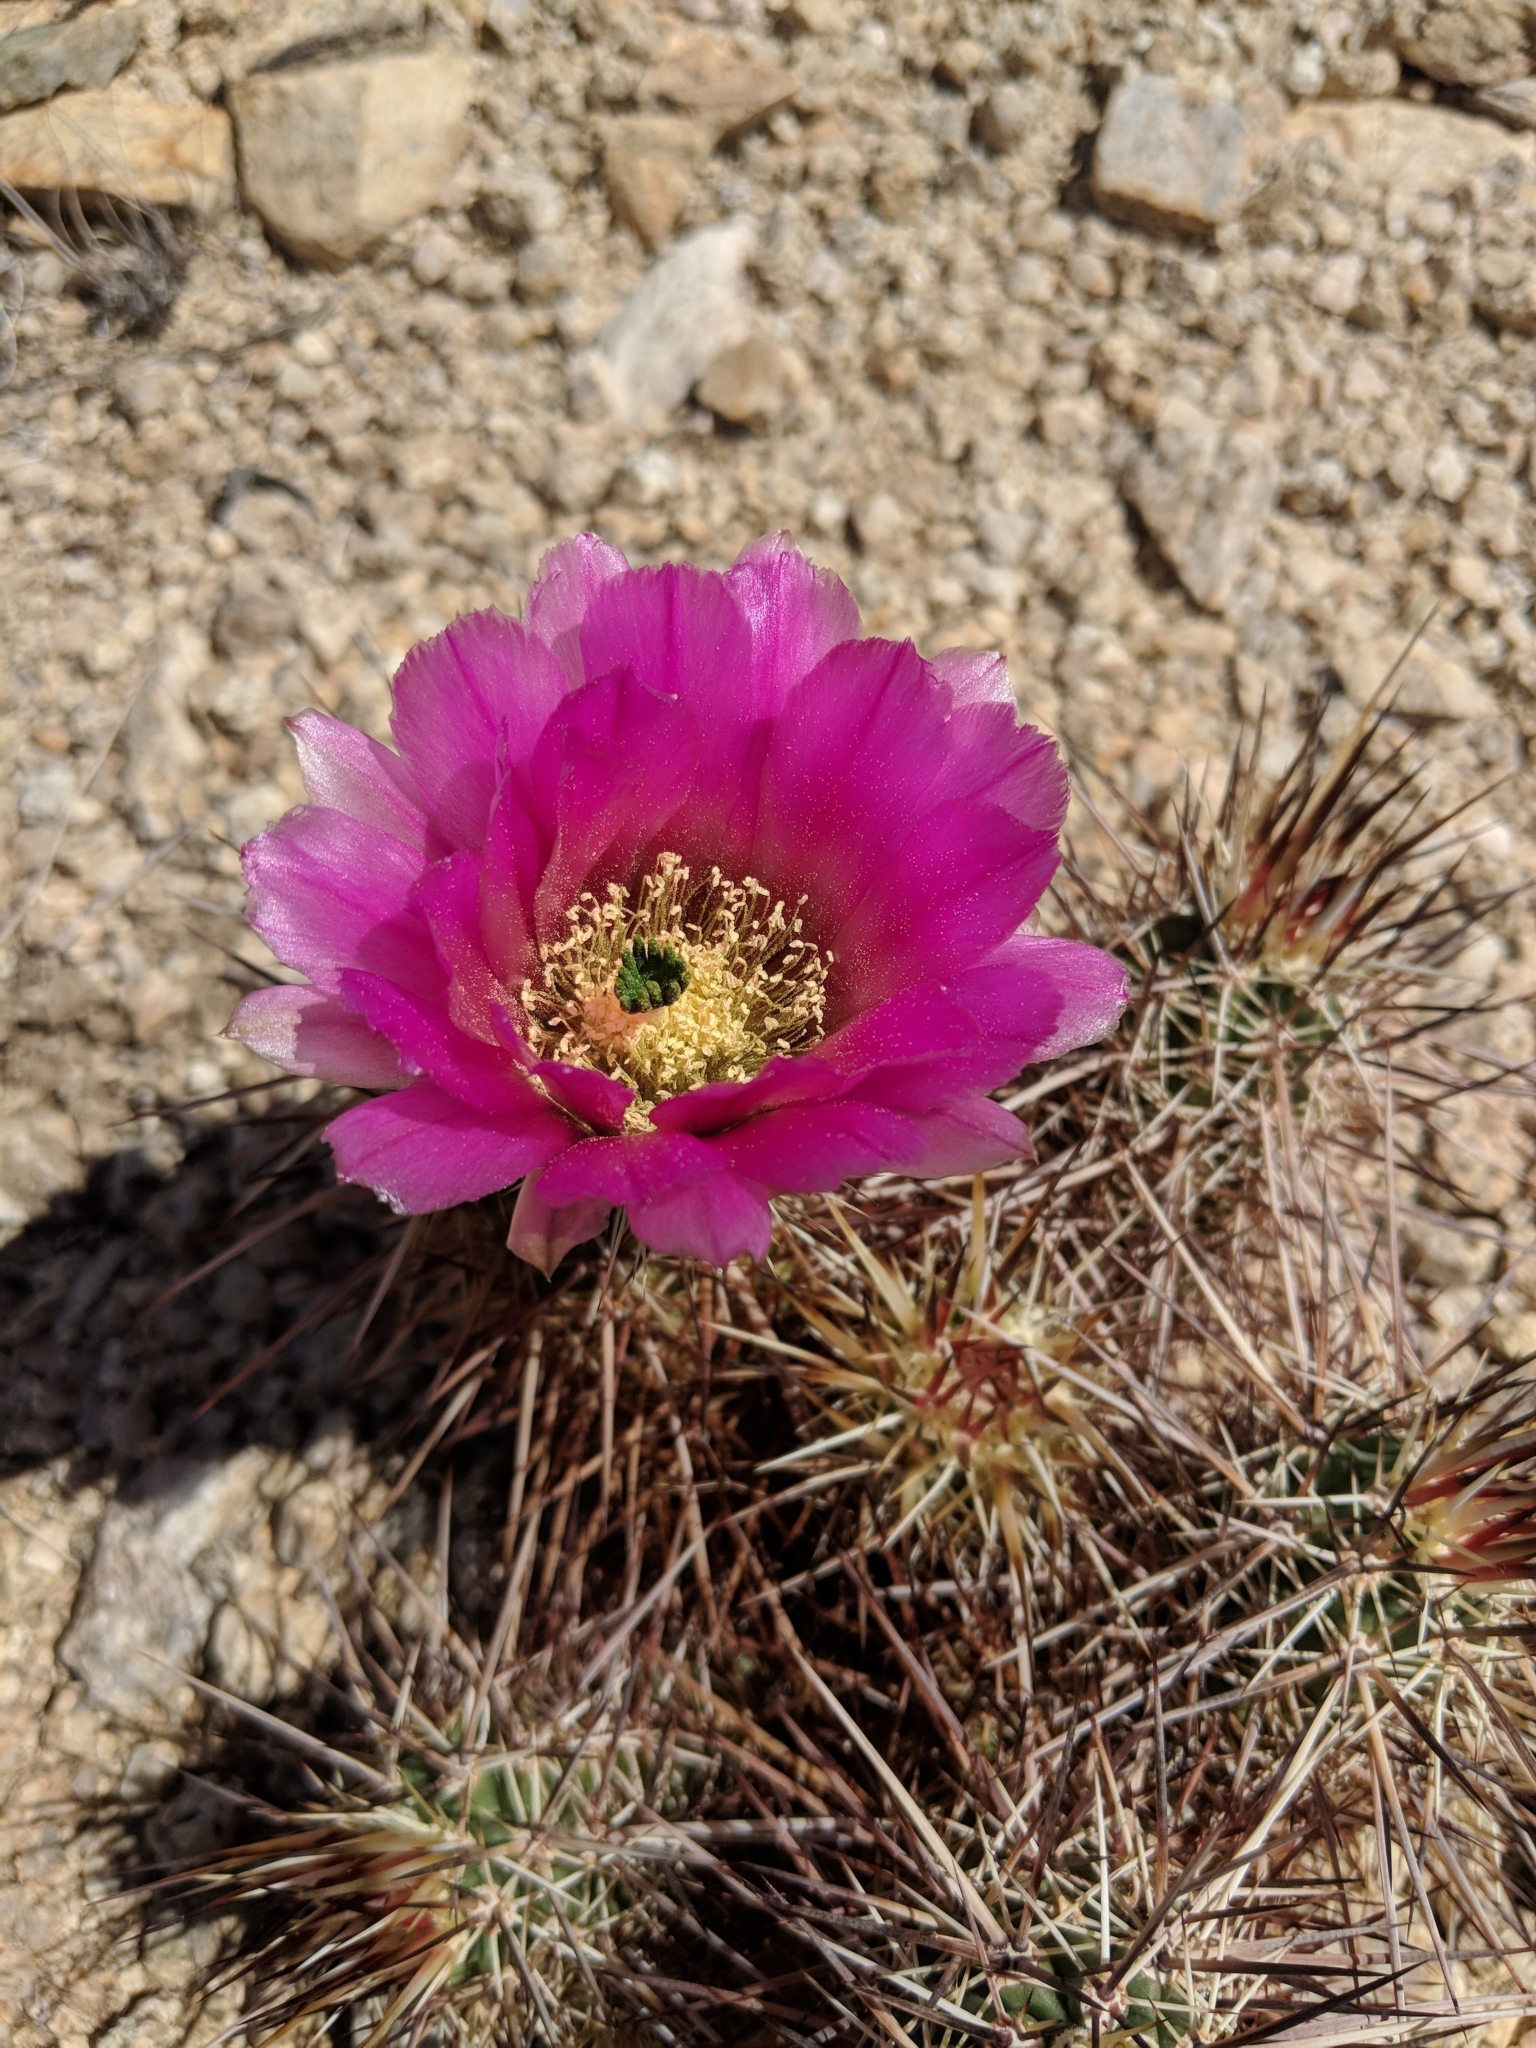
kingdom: Plantae
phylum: Tracheophyta
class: Magnoliopsida
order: Caryophyllales
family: Cactaceae
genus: Echinocereus
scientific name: Echinocereus engelmannii
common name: Engelmann's hedgehog cactus
